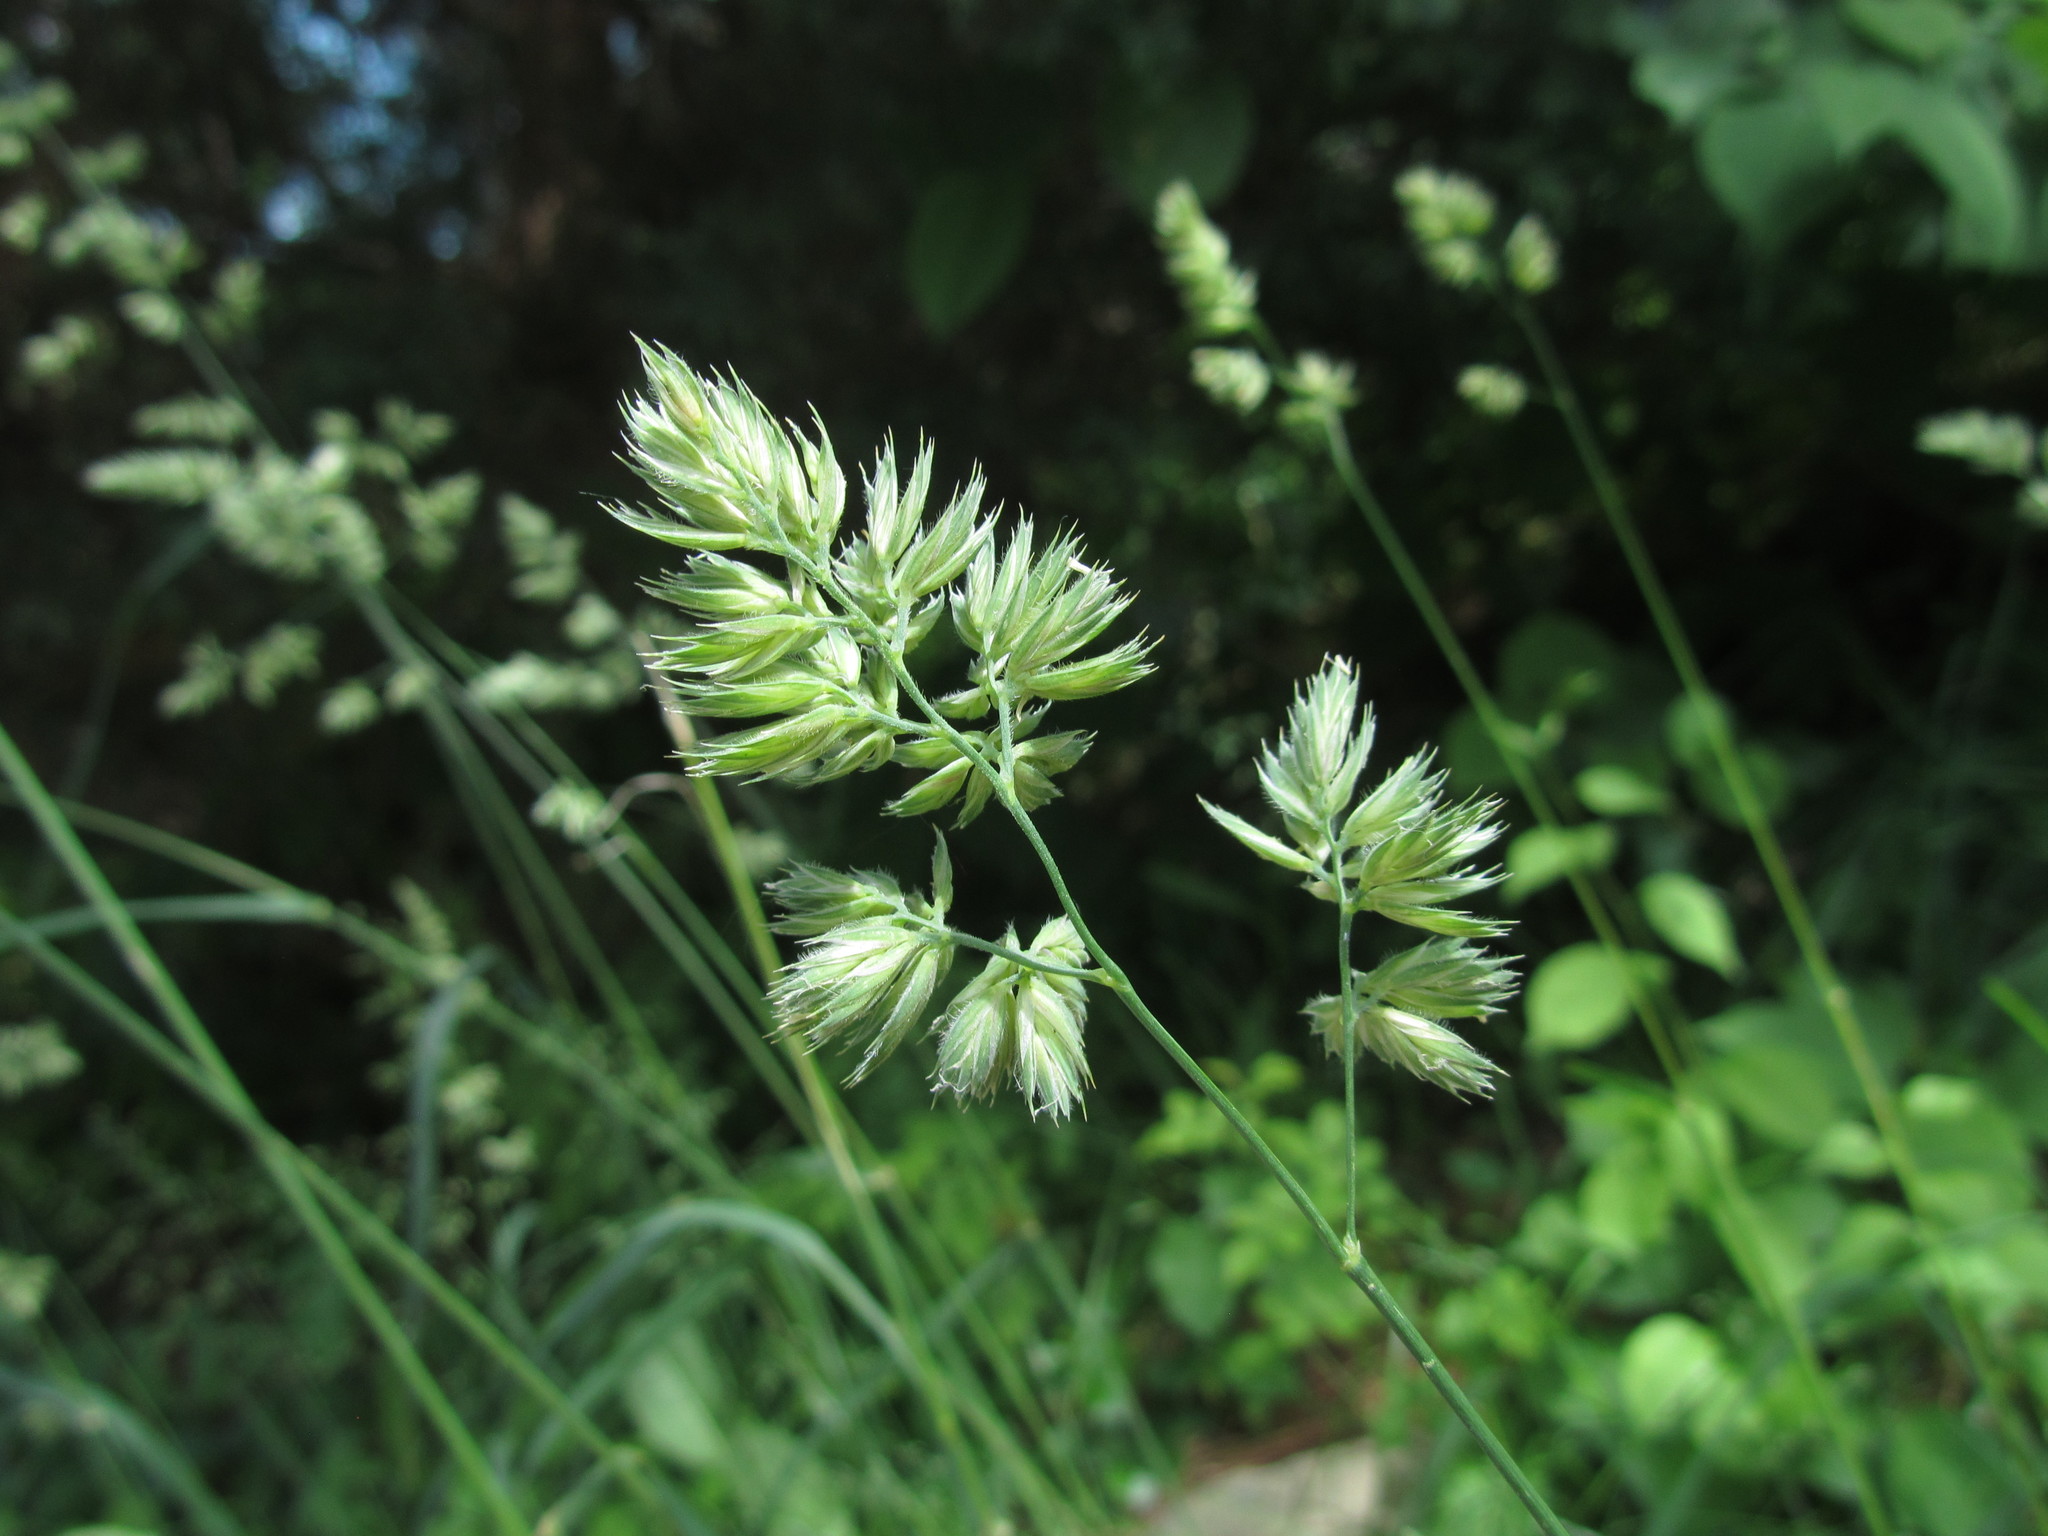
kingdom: Plantae
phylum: Tracheophyta
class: Liliopsida
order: Poales
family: Poaceae
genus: Dactylis
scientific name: Dactylis glomerata
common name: Orchardgrass
